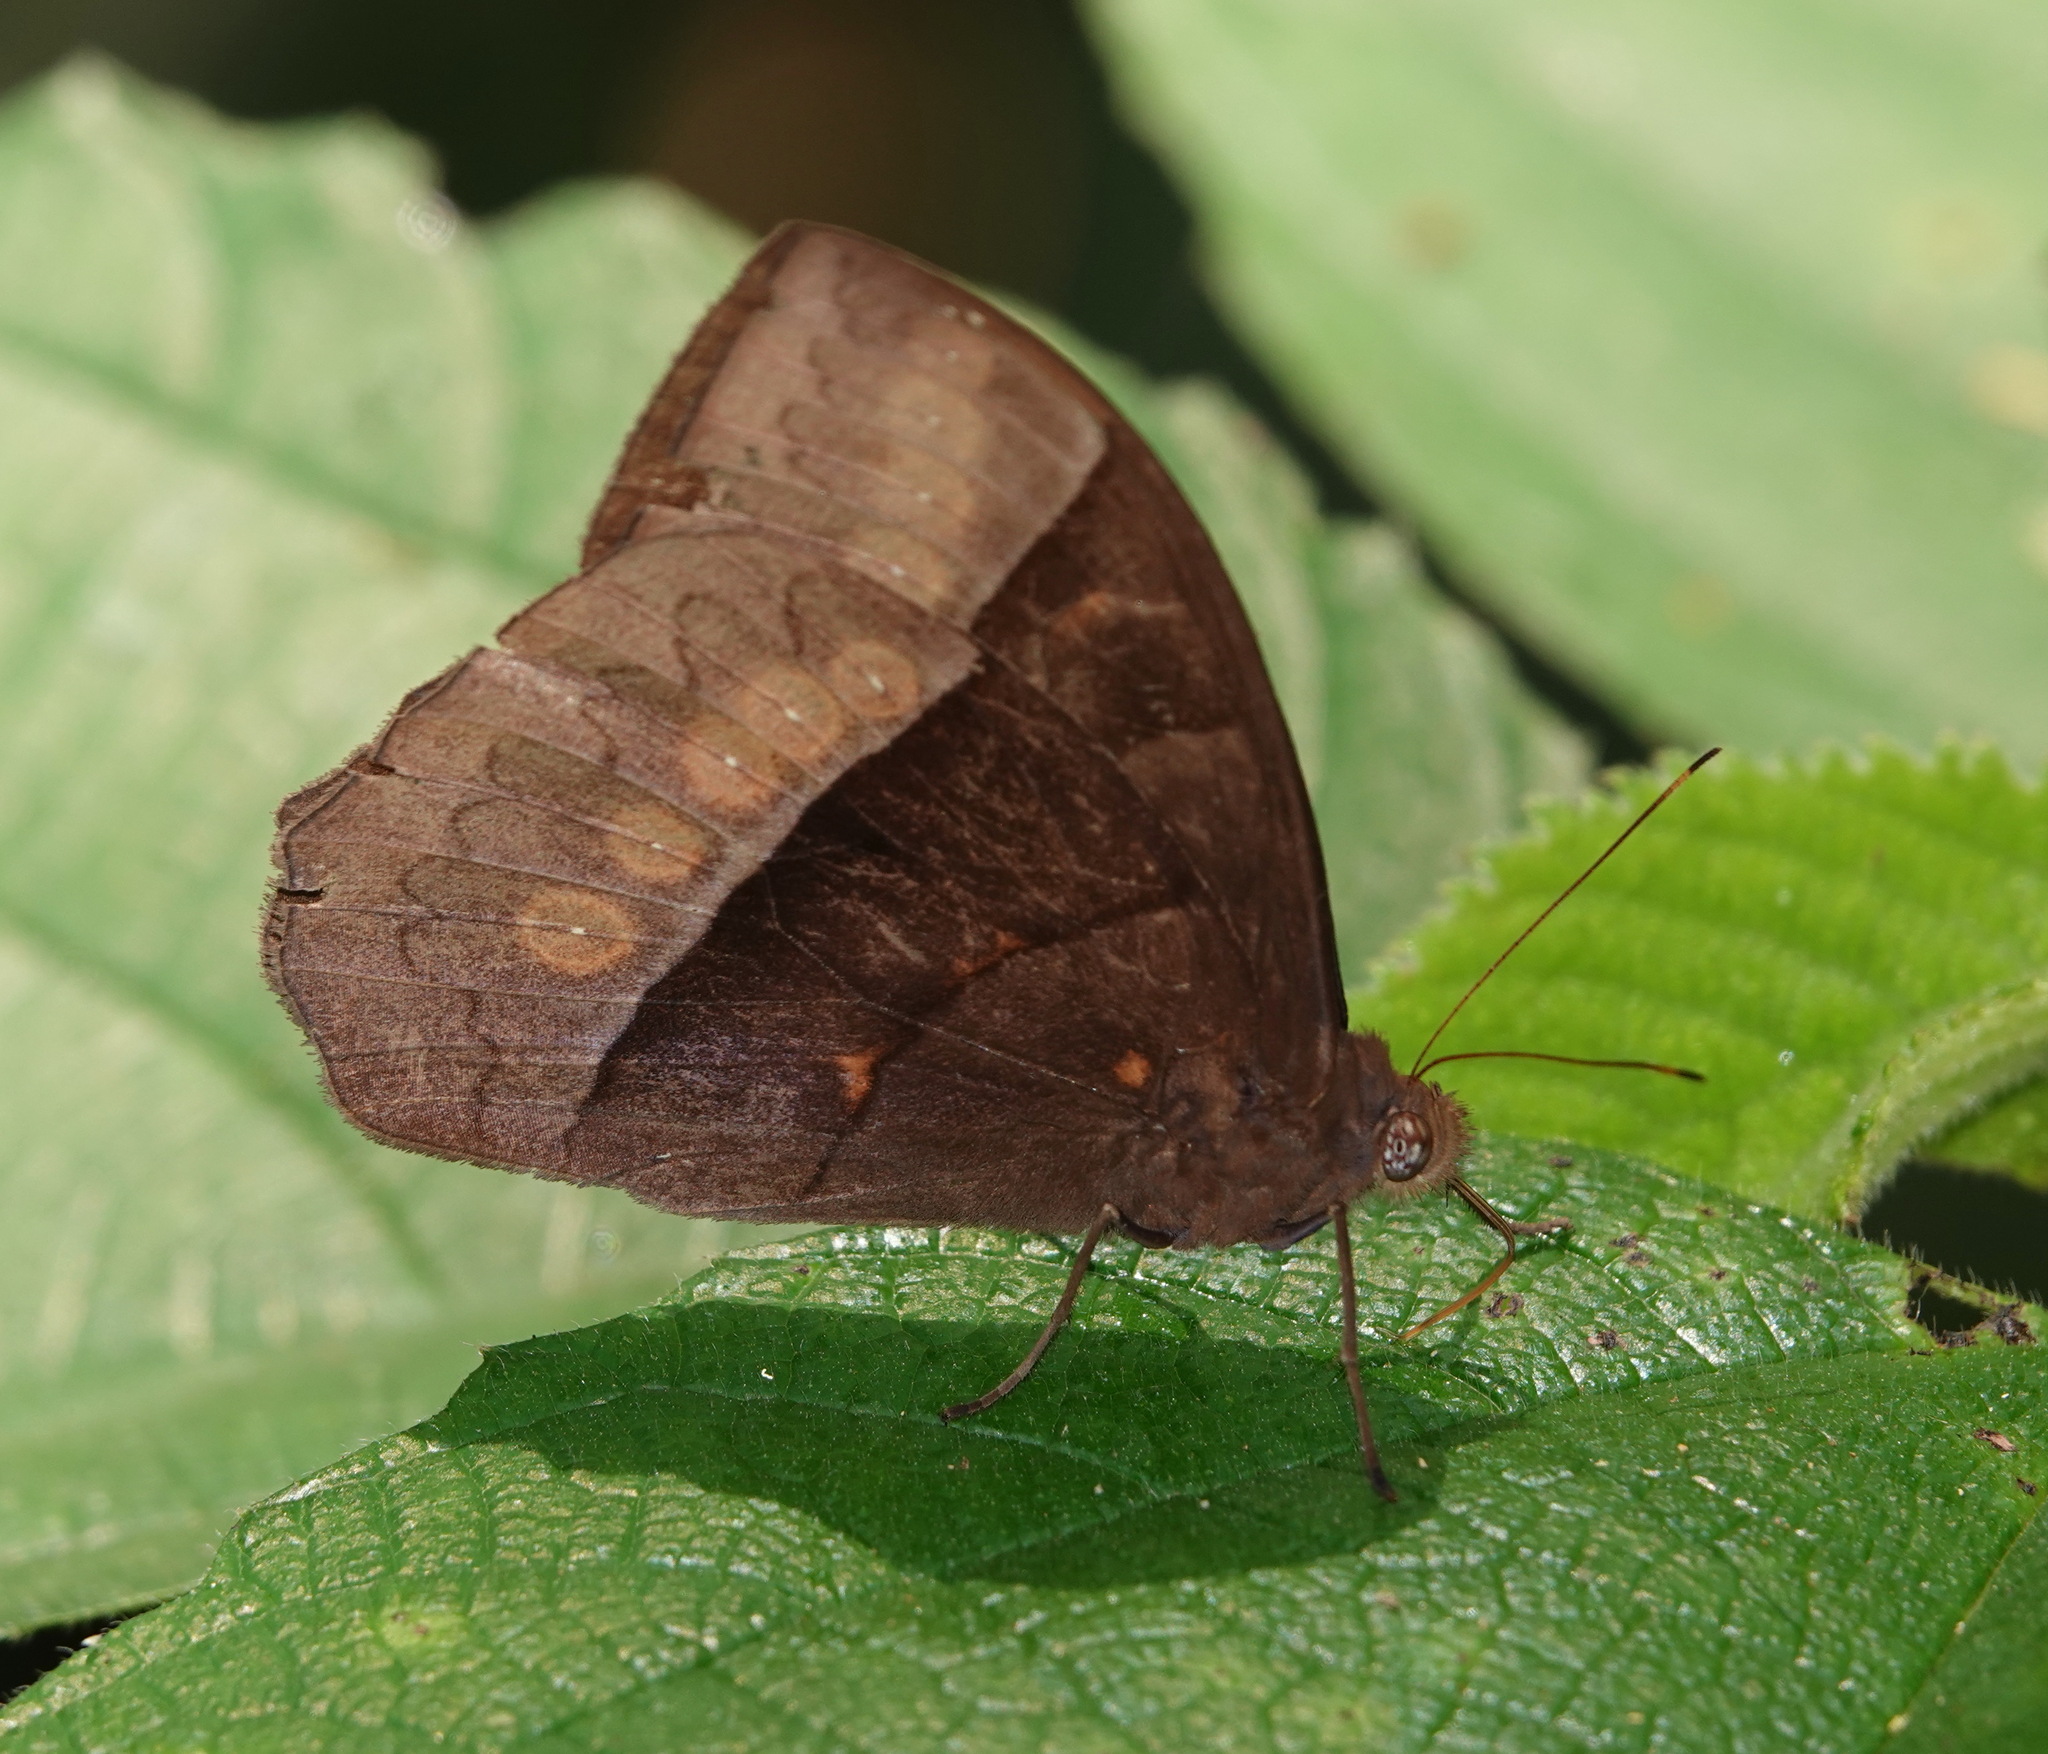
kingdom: Animalia
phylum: Arthropoda
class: Insecta
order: Lepidoptera
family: Nymphalidae
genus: Taygetis
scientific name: Taygetis oyapock
